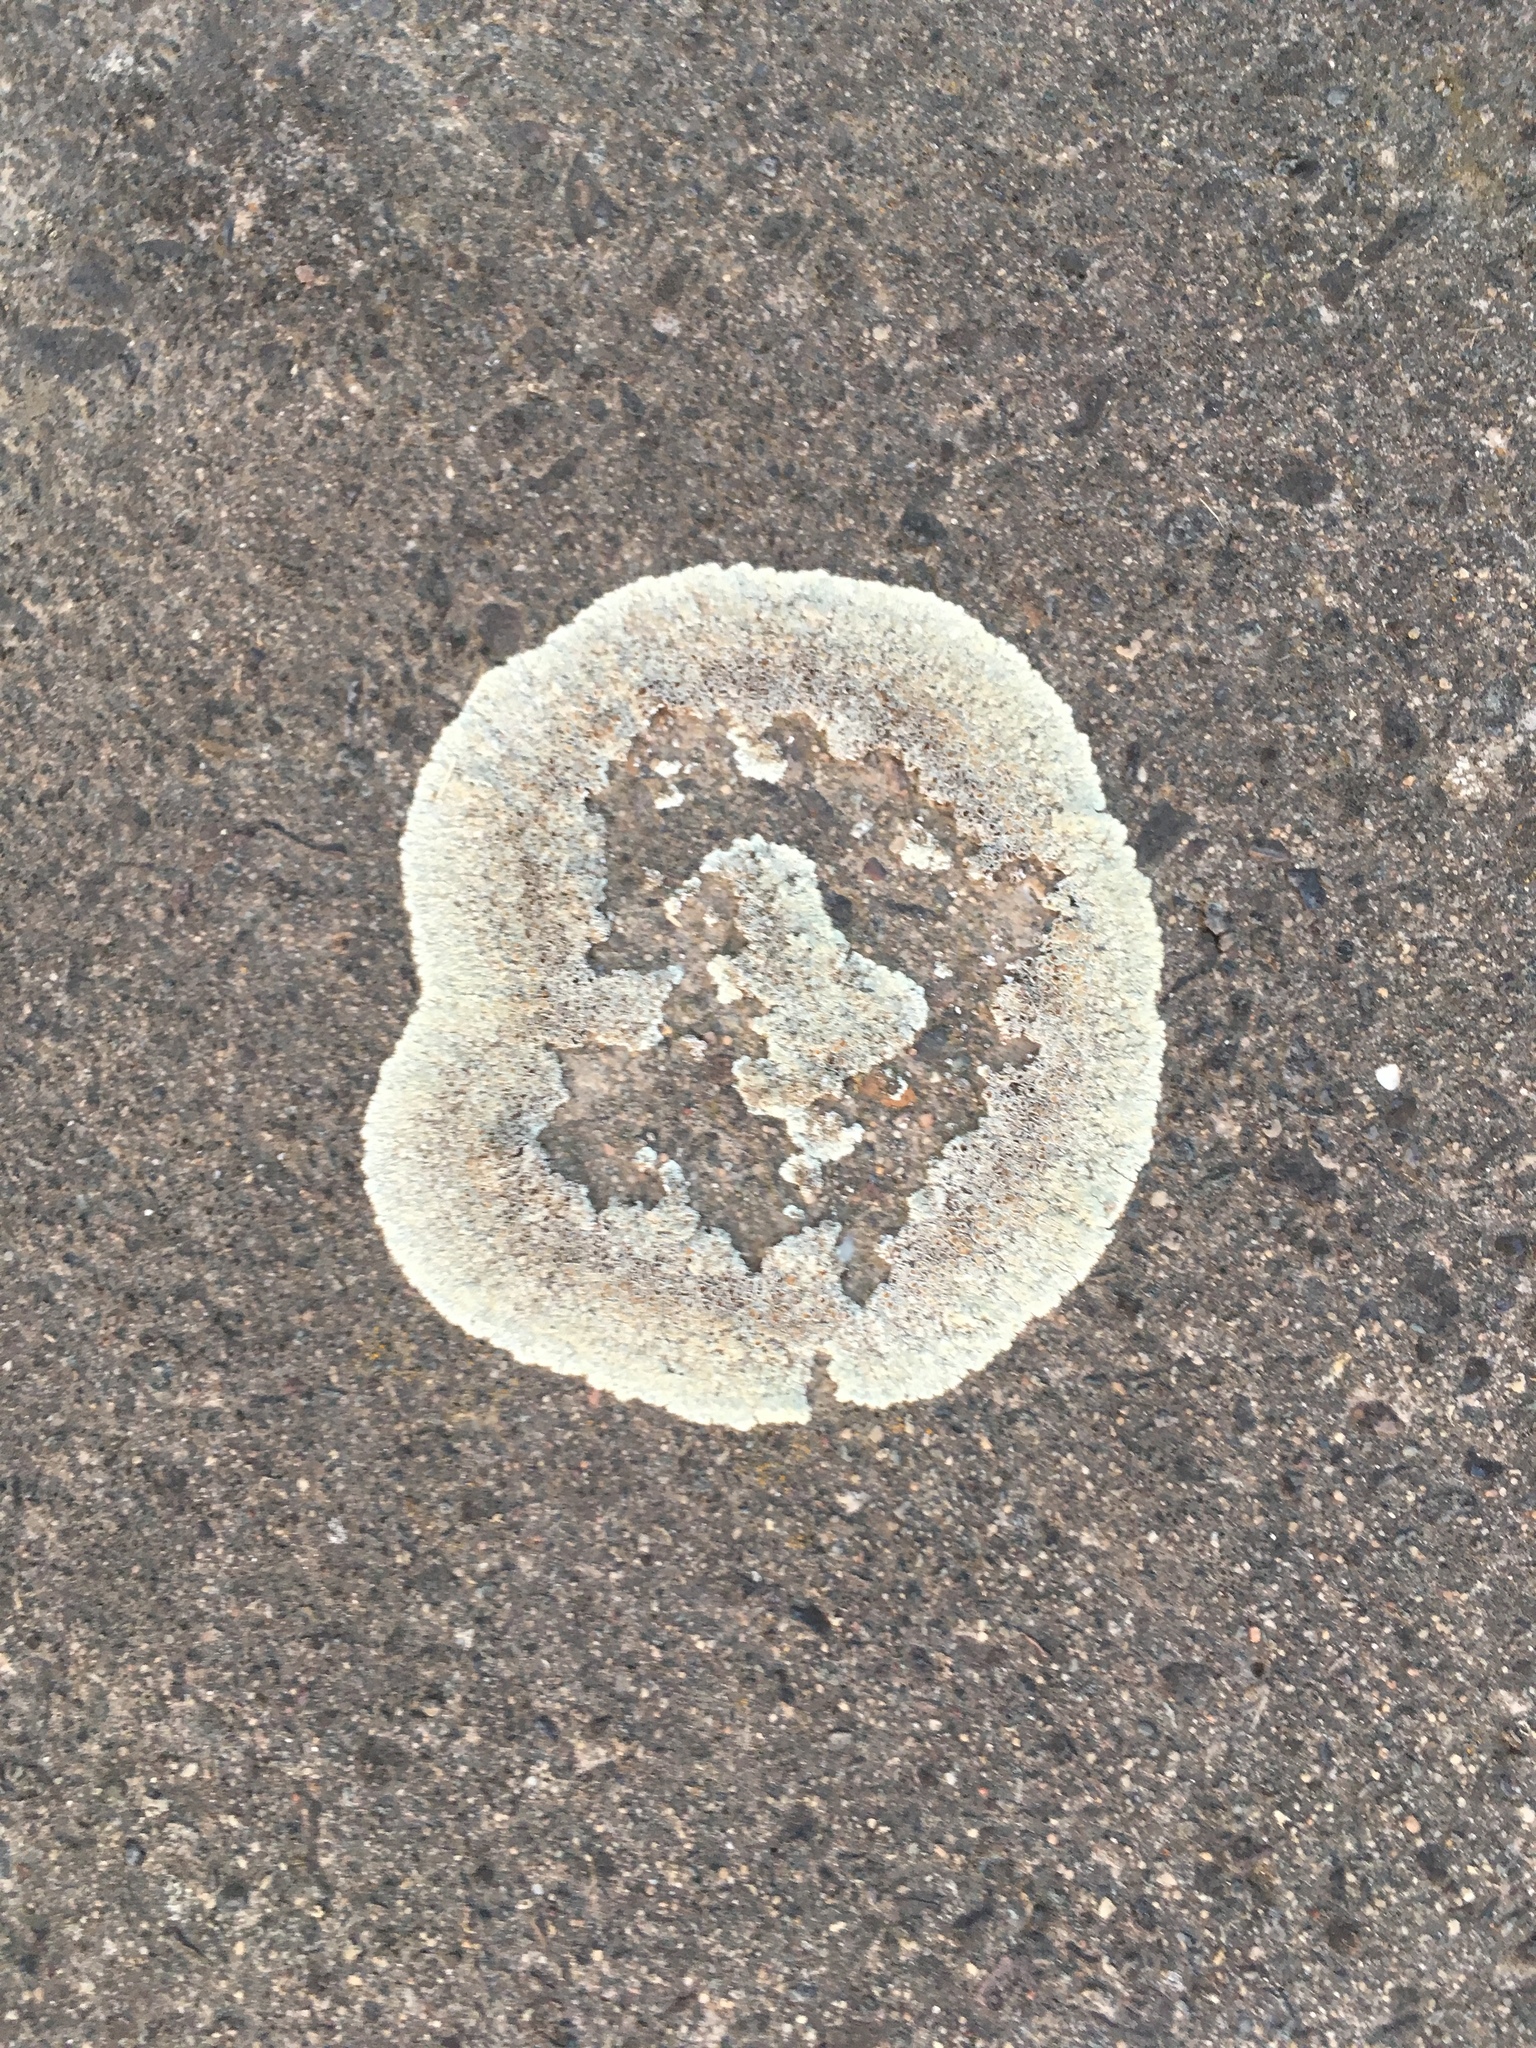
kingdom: Fungi
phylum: Ascomycota
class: Lecanoromycetes
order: Lecanorales
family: Lecanoraceae
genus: Protoparmeliopsis
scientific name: Protoparmeliopsis muralis
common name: Stonewall rim lichen
